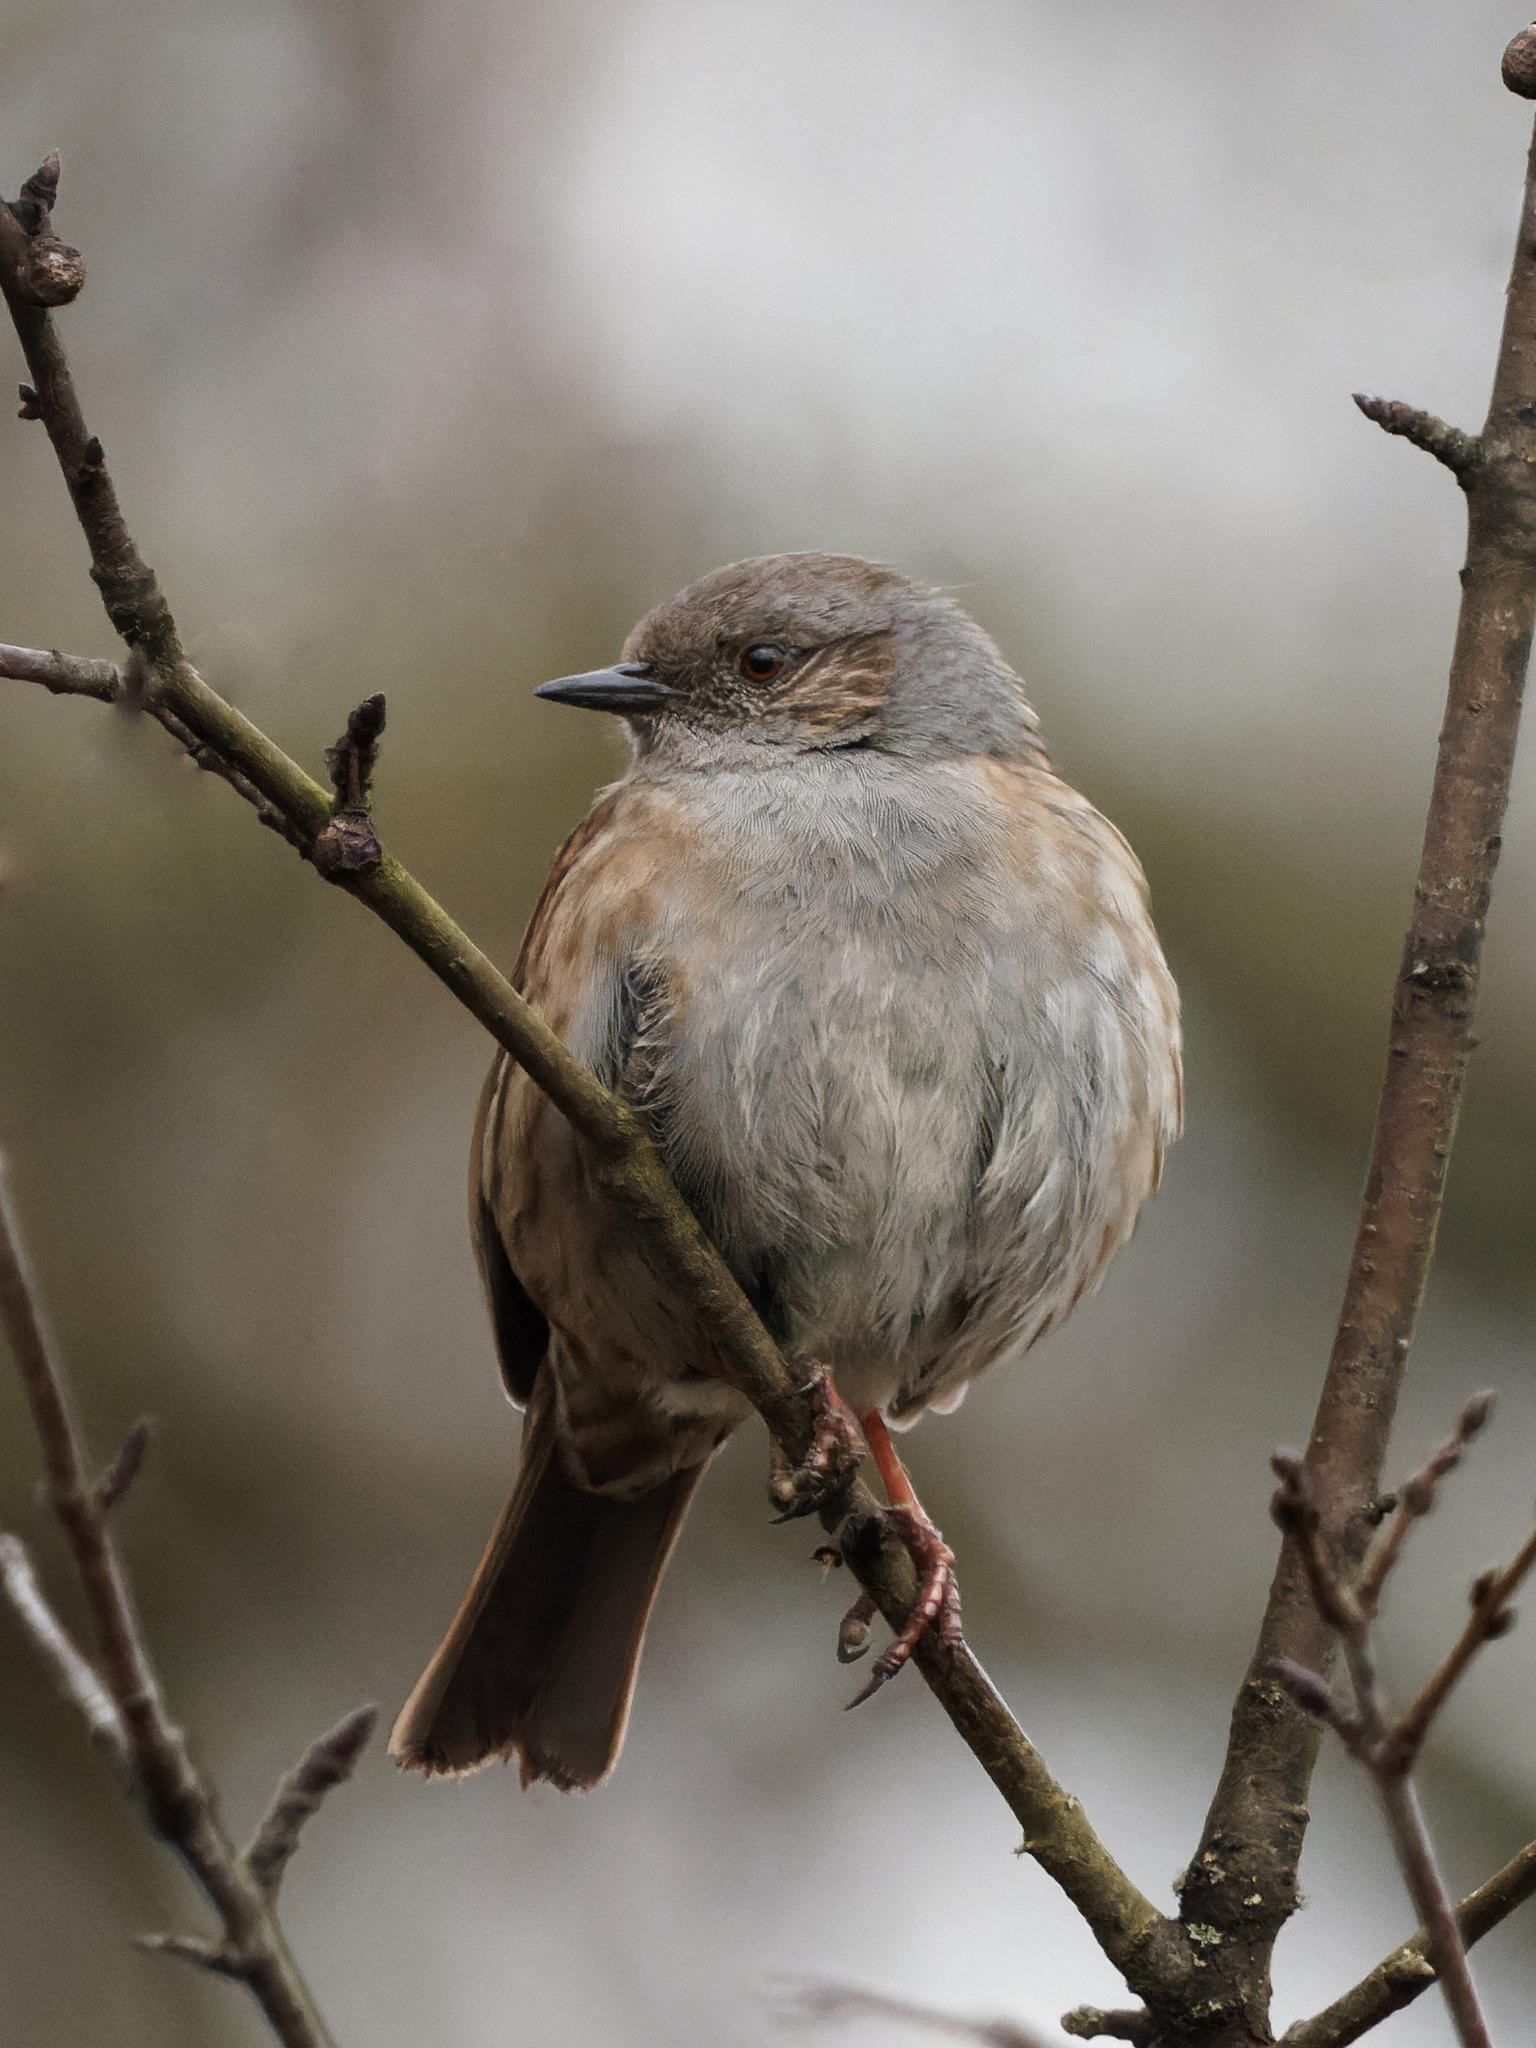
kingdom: Animalia
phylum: Chordata
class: Aves
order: Passeriformes
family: Prunellidae
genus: Prunella
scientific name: Prunella modularis
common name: Dunnock
